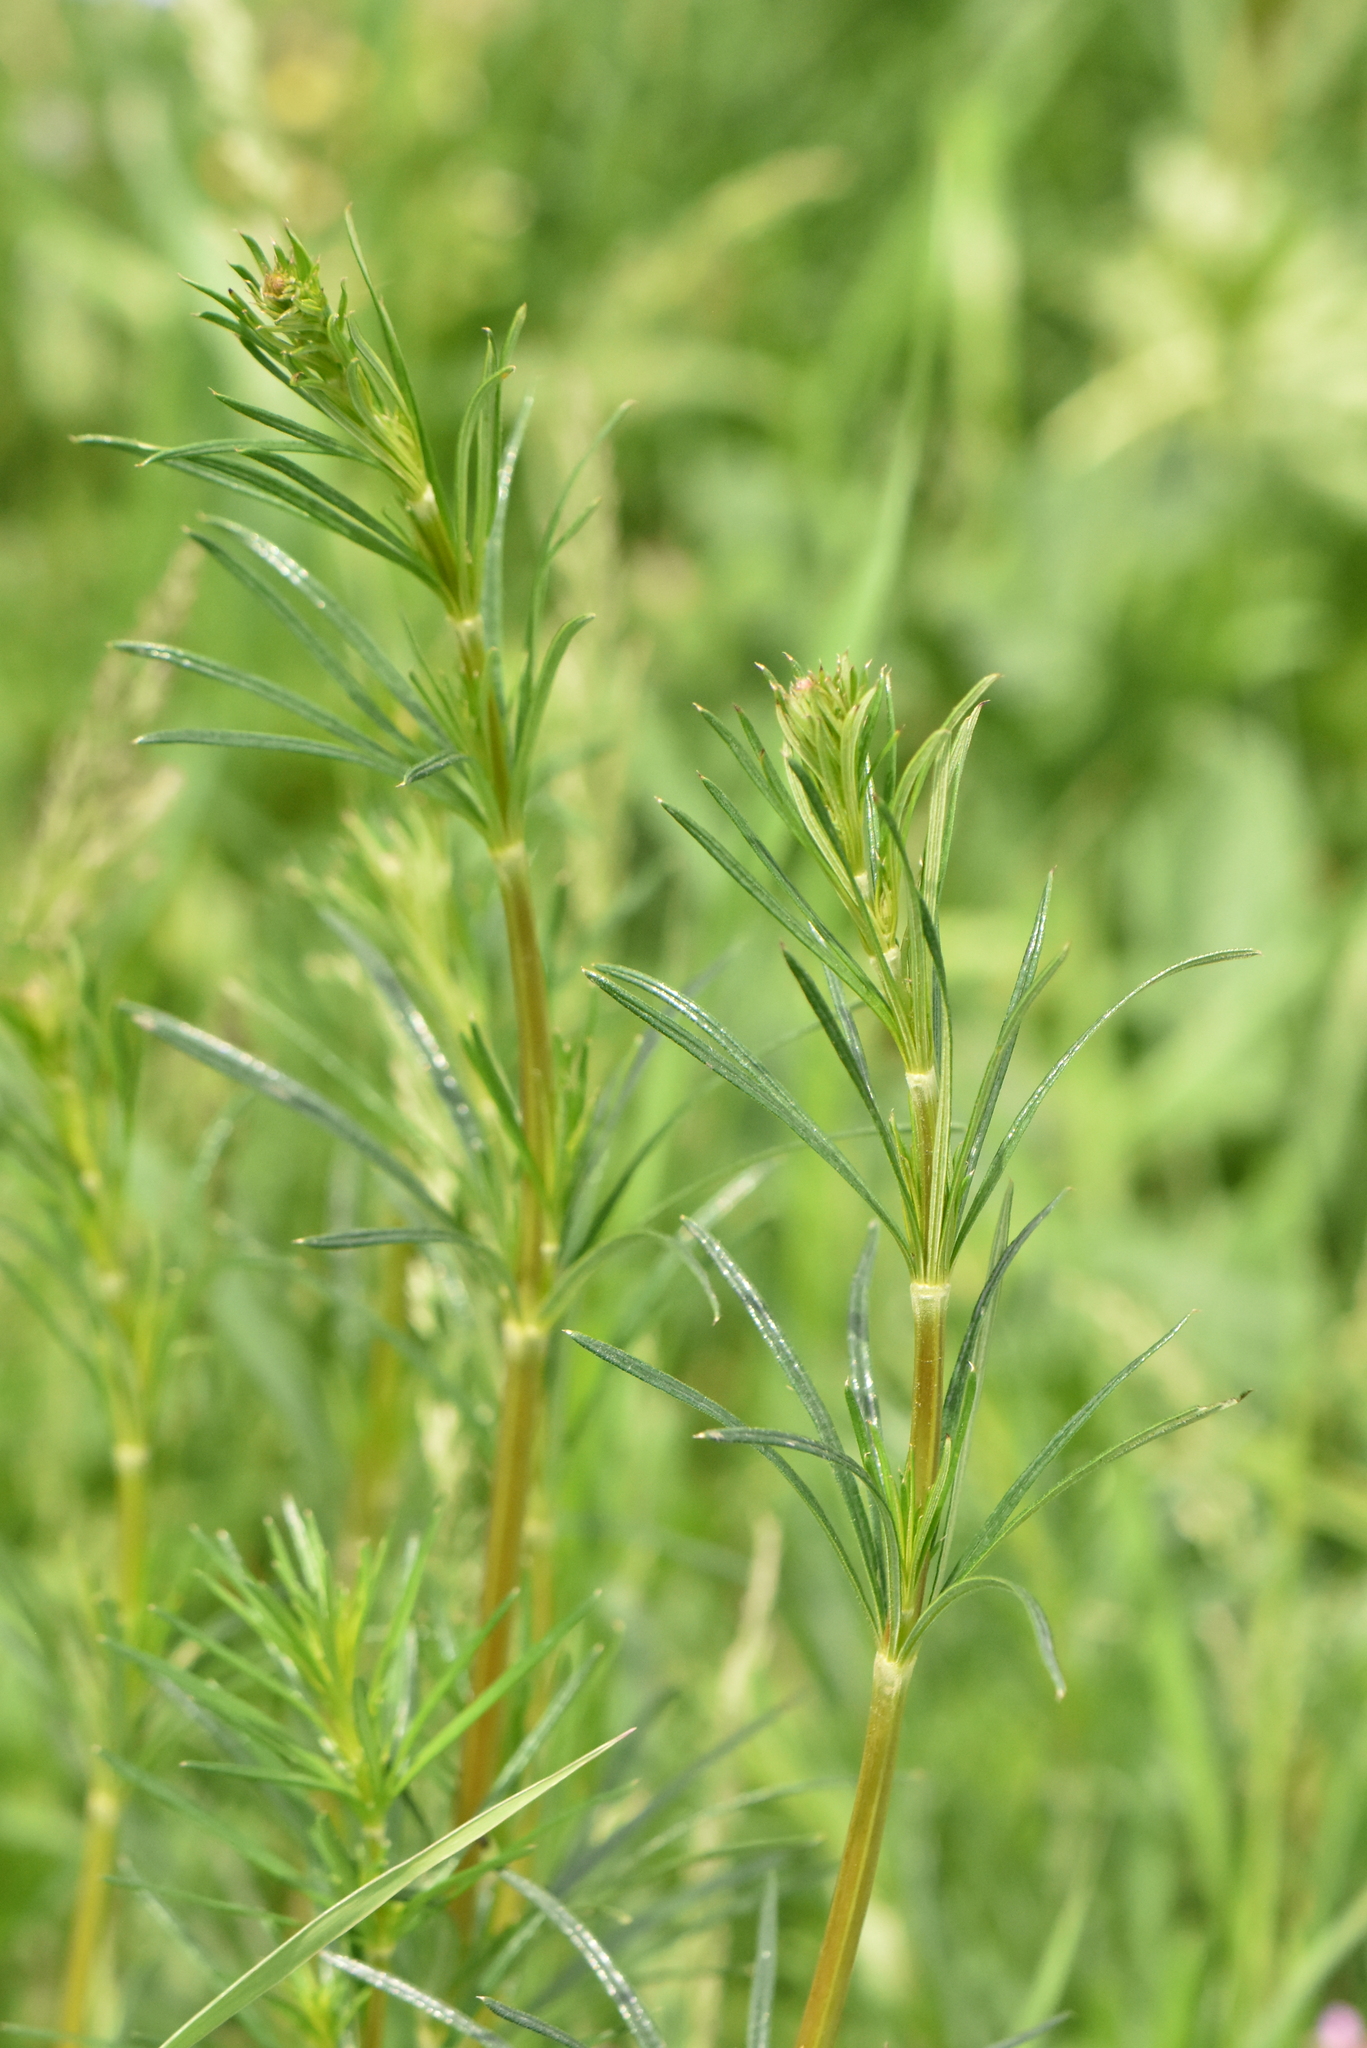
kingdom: Plantae
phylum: Tracheophyta
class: Magnoliopsida
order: Gentianales
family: Rubiaceae
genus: Galium
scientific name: Galium verum
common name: Lady's bedstraw
